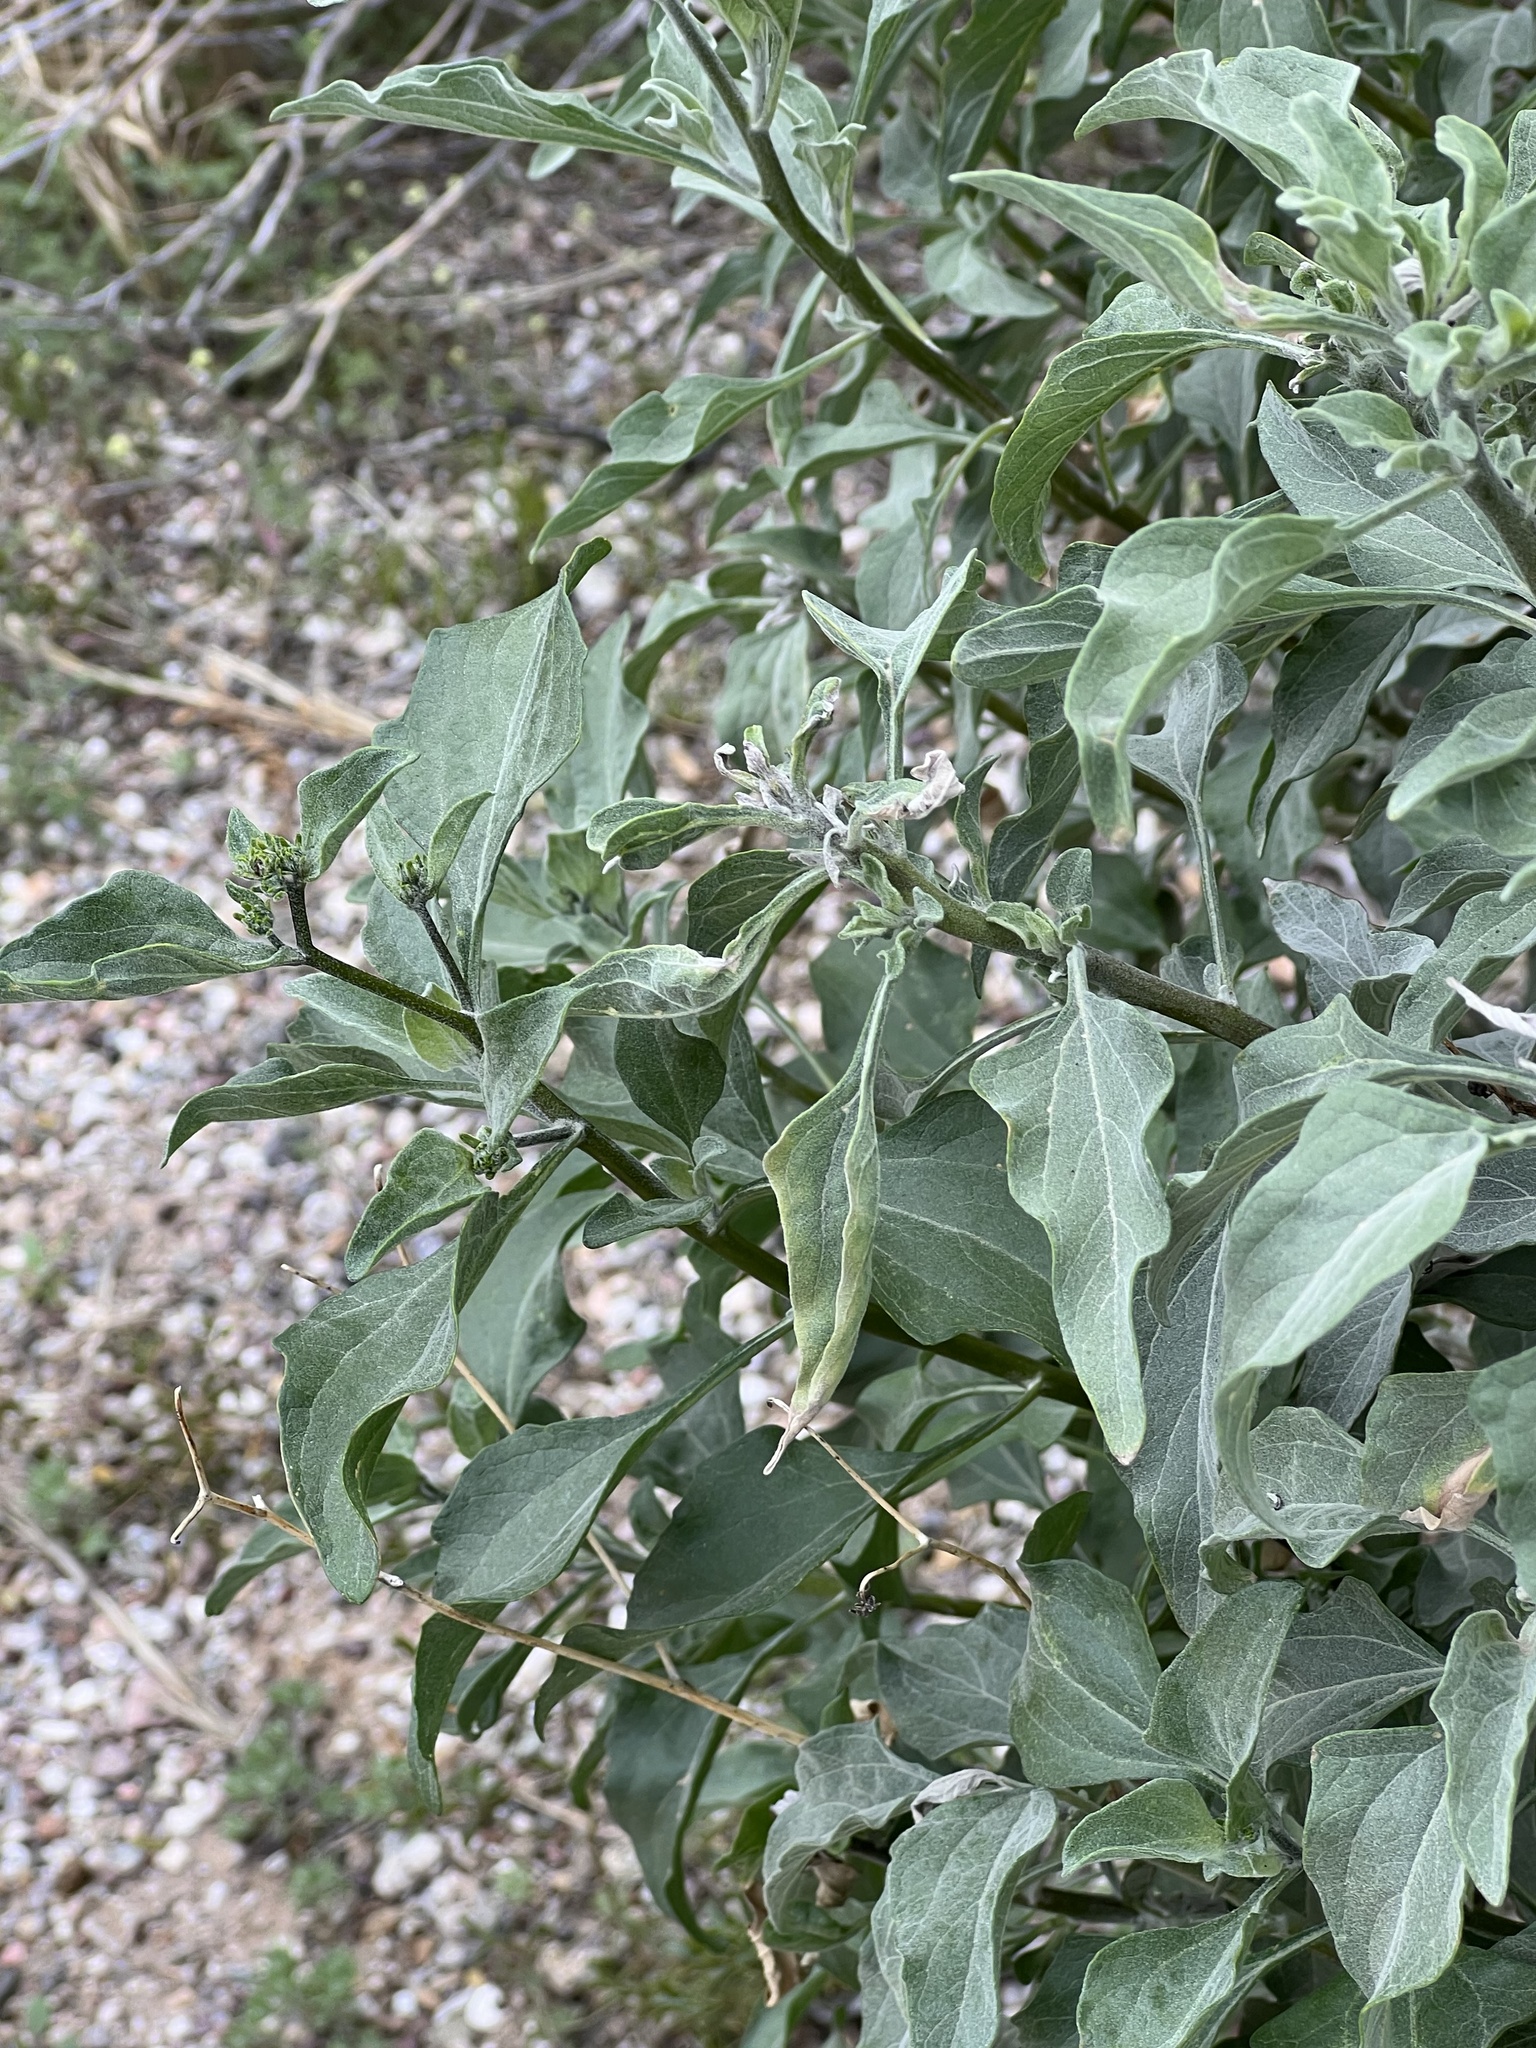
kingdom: Plantae
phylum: Tracheophyta
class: Magnoliopsida
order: Asterales
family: Asteraceae
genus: Encelia
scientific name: Encelia farinosa
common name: Brittlebush
